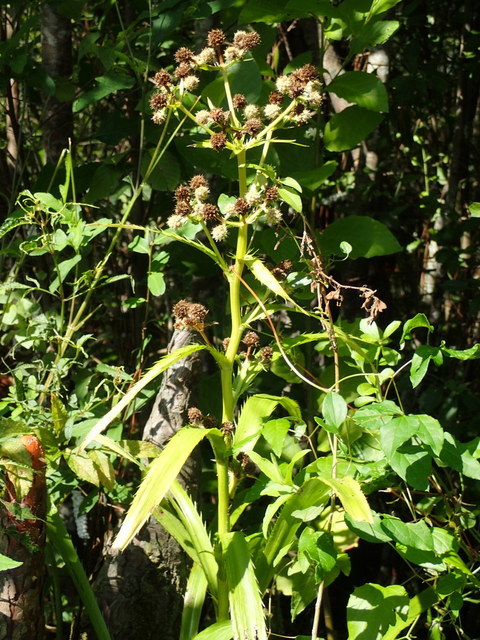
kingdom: Plantae
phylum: Tracheophyta
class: Magnoliopsida
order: Apiales
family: Apiaceae
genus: Eryngium
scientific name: Eryngium yuccifolium
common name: Button eryngo
